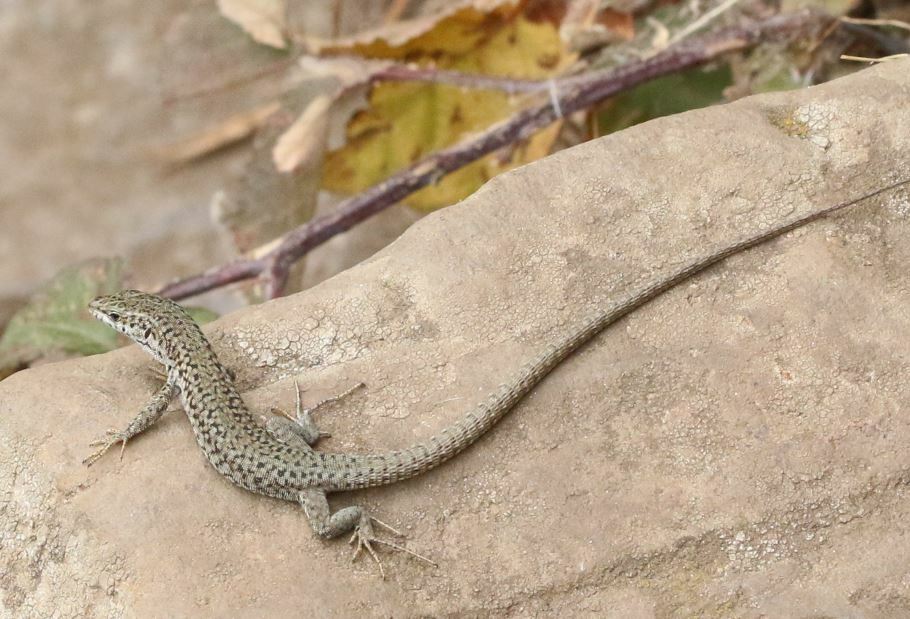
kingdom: Animalia
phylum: Chordata
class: Squamata
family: Lacertidae
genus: Podarcis
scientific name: Podarcis liolepis
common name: Catalonian wall lizard
